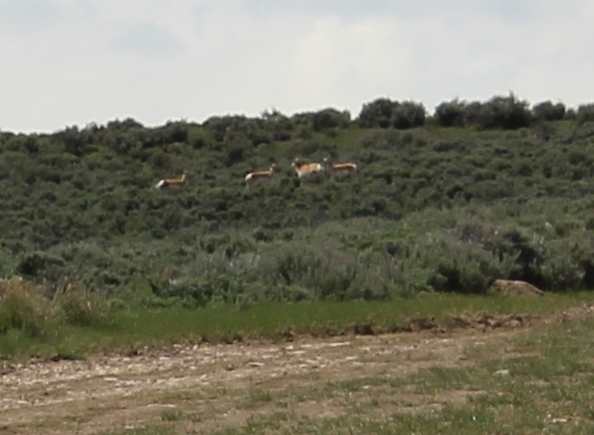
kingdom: Animalia
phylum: Chordata
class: Mammalia
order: Artiodactyla
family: Antilocapridae
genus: Antilocapra
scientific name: Antilocapra americana
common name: Pronghorn
